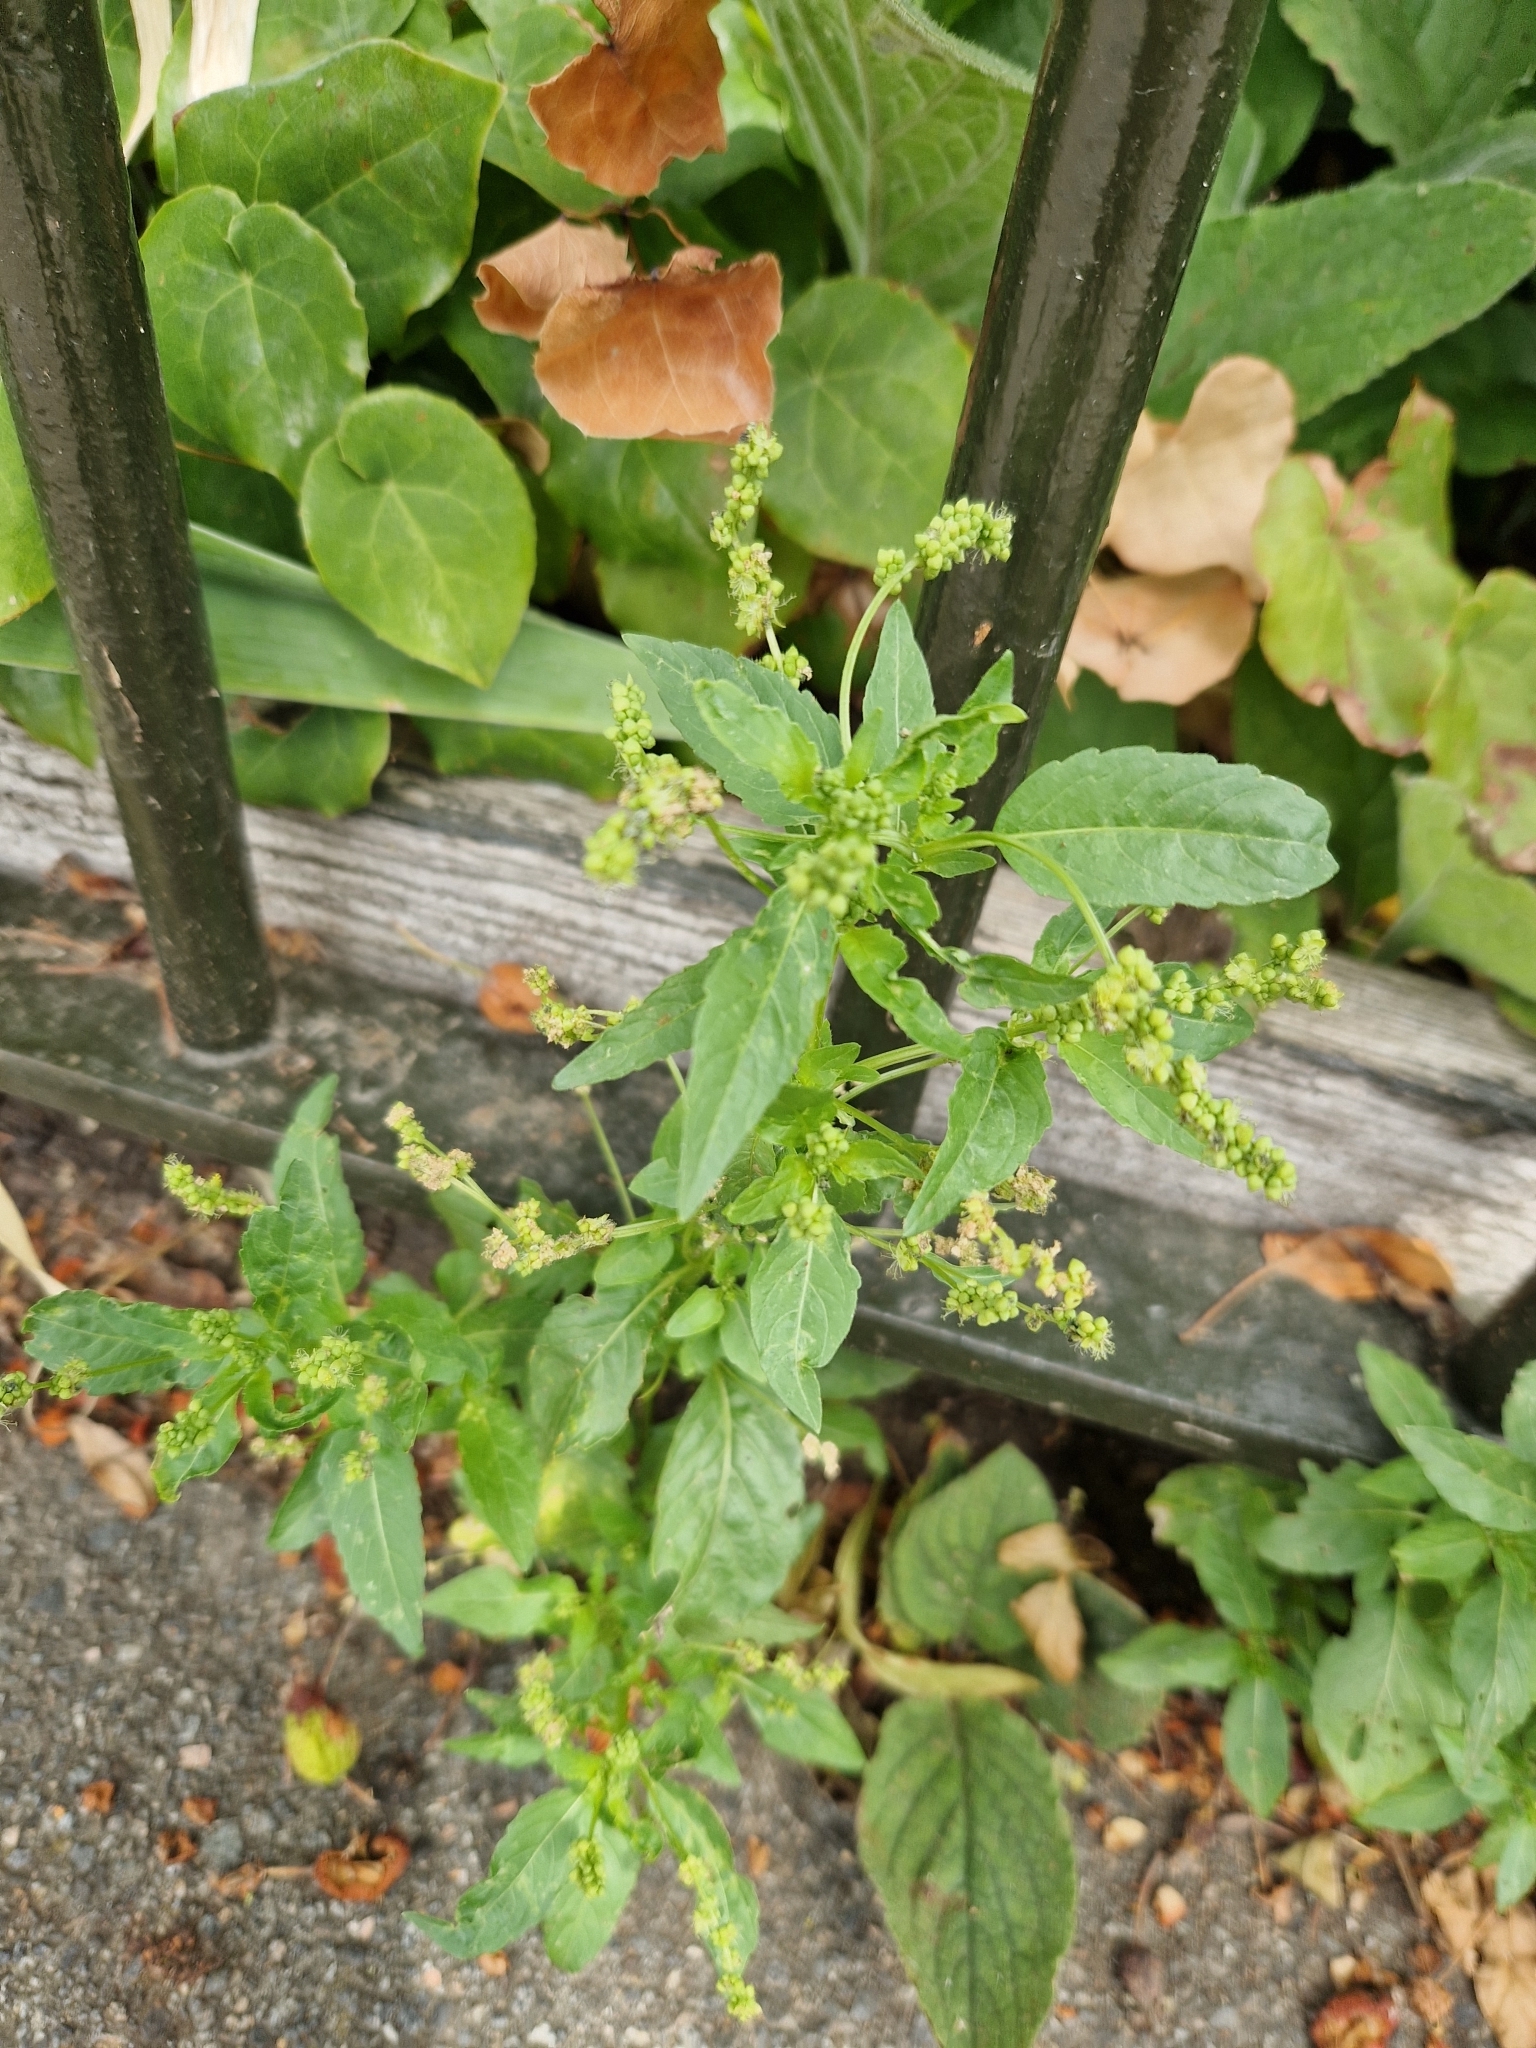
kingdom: Plantae
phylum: Tracheophyta
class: Magnoliopsida
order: Malpighiales
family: Euphorbiaceae
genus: Mercurialis
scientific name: Mercurialis annua
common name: Annual mercury
